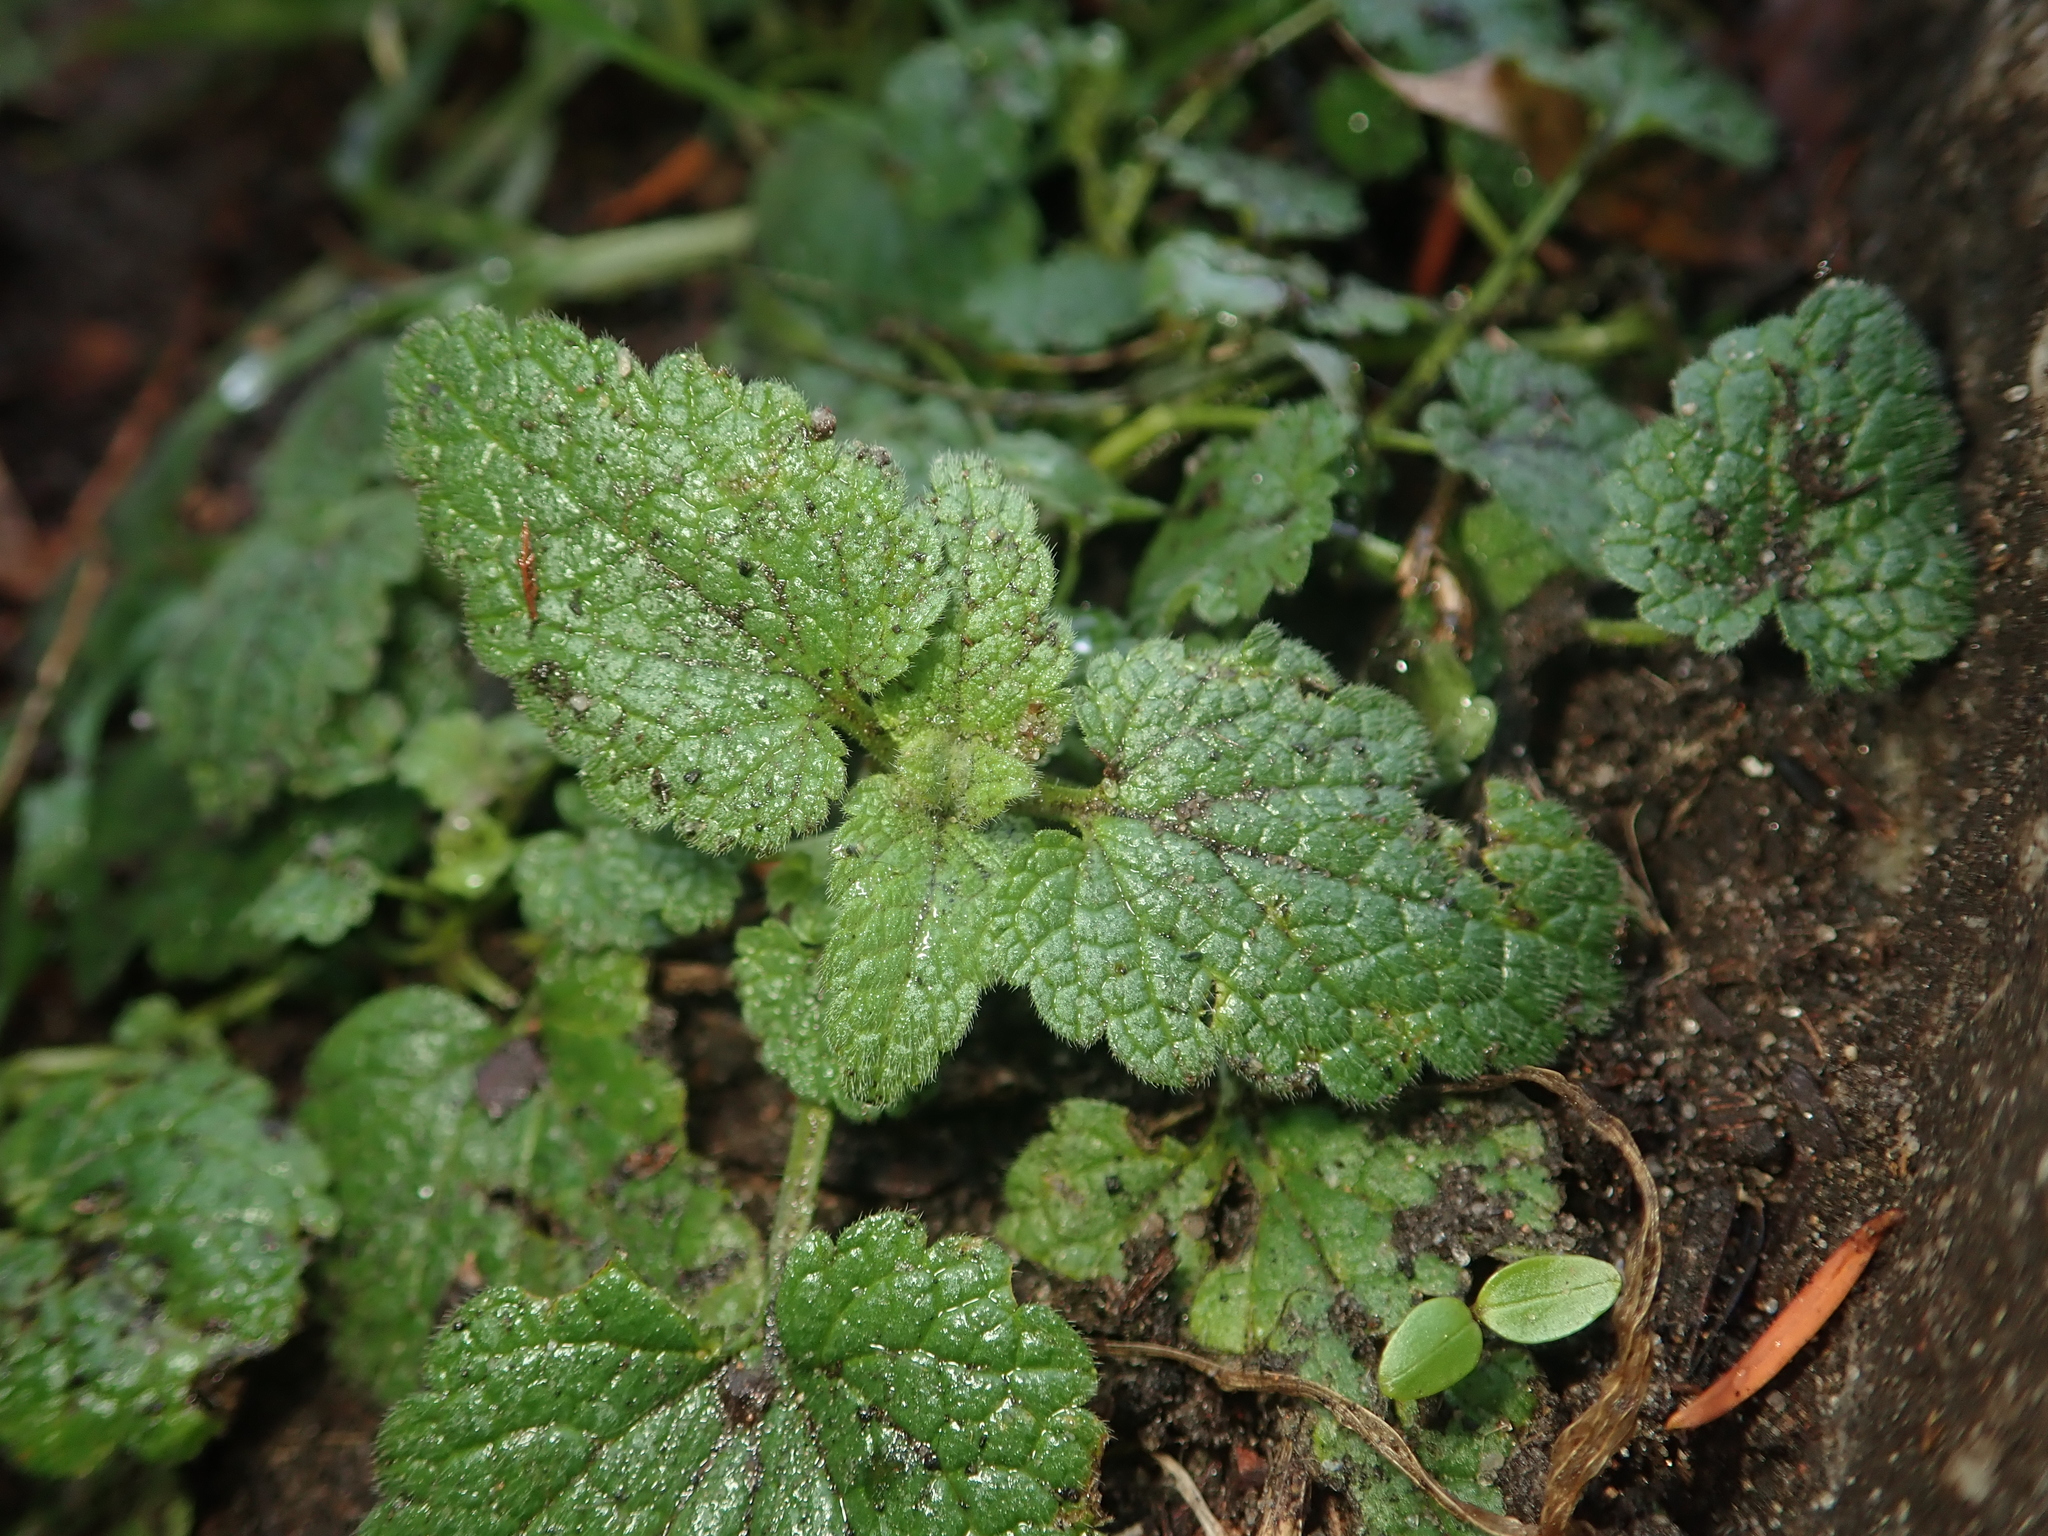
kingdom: Plantae
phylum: Tracheophyta
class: Magnoliopsida
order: Lamiales
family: Lamiaceae
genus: Lamium
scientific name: Lamium purpureum
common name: Red dead-nettle
